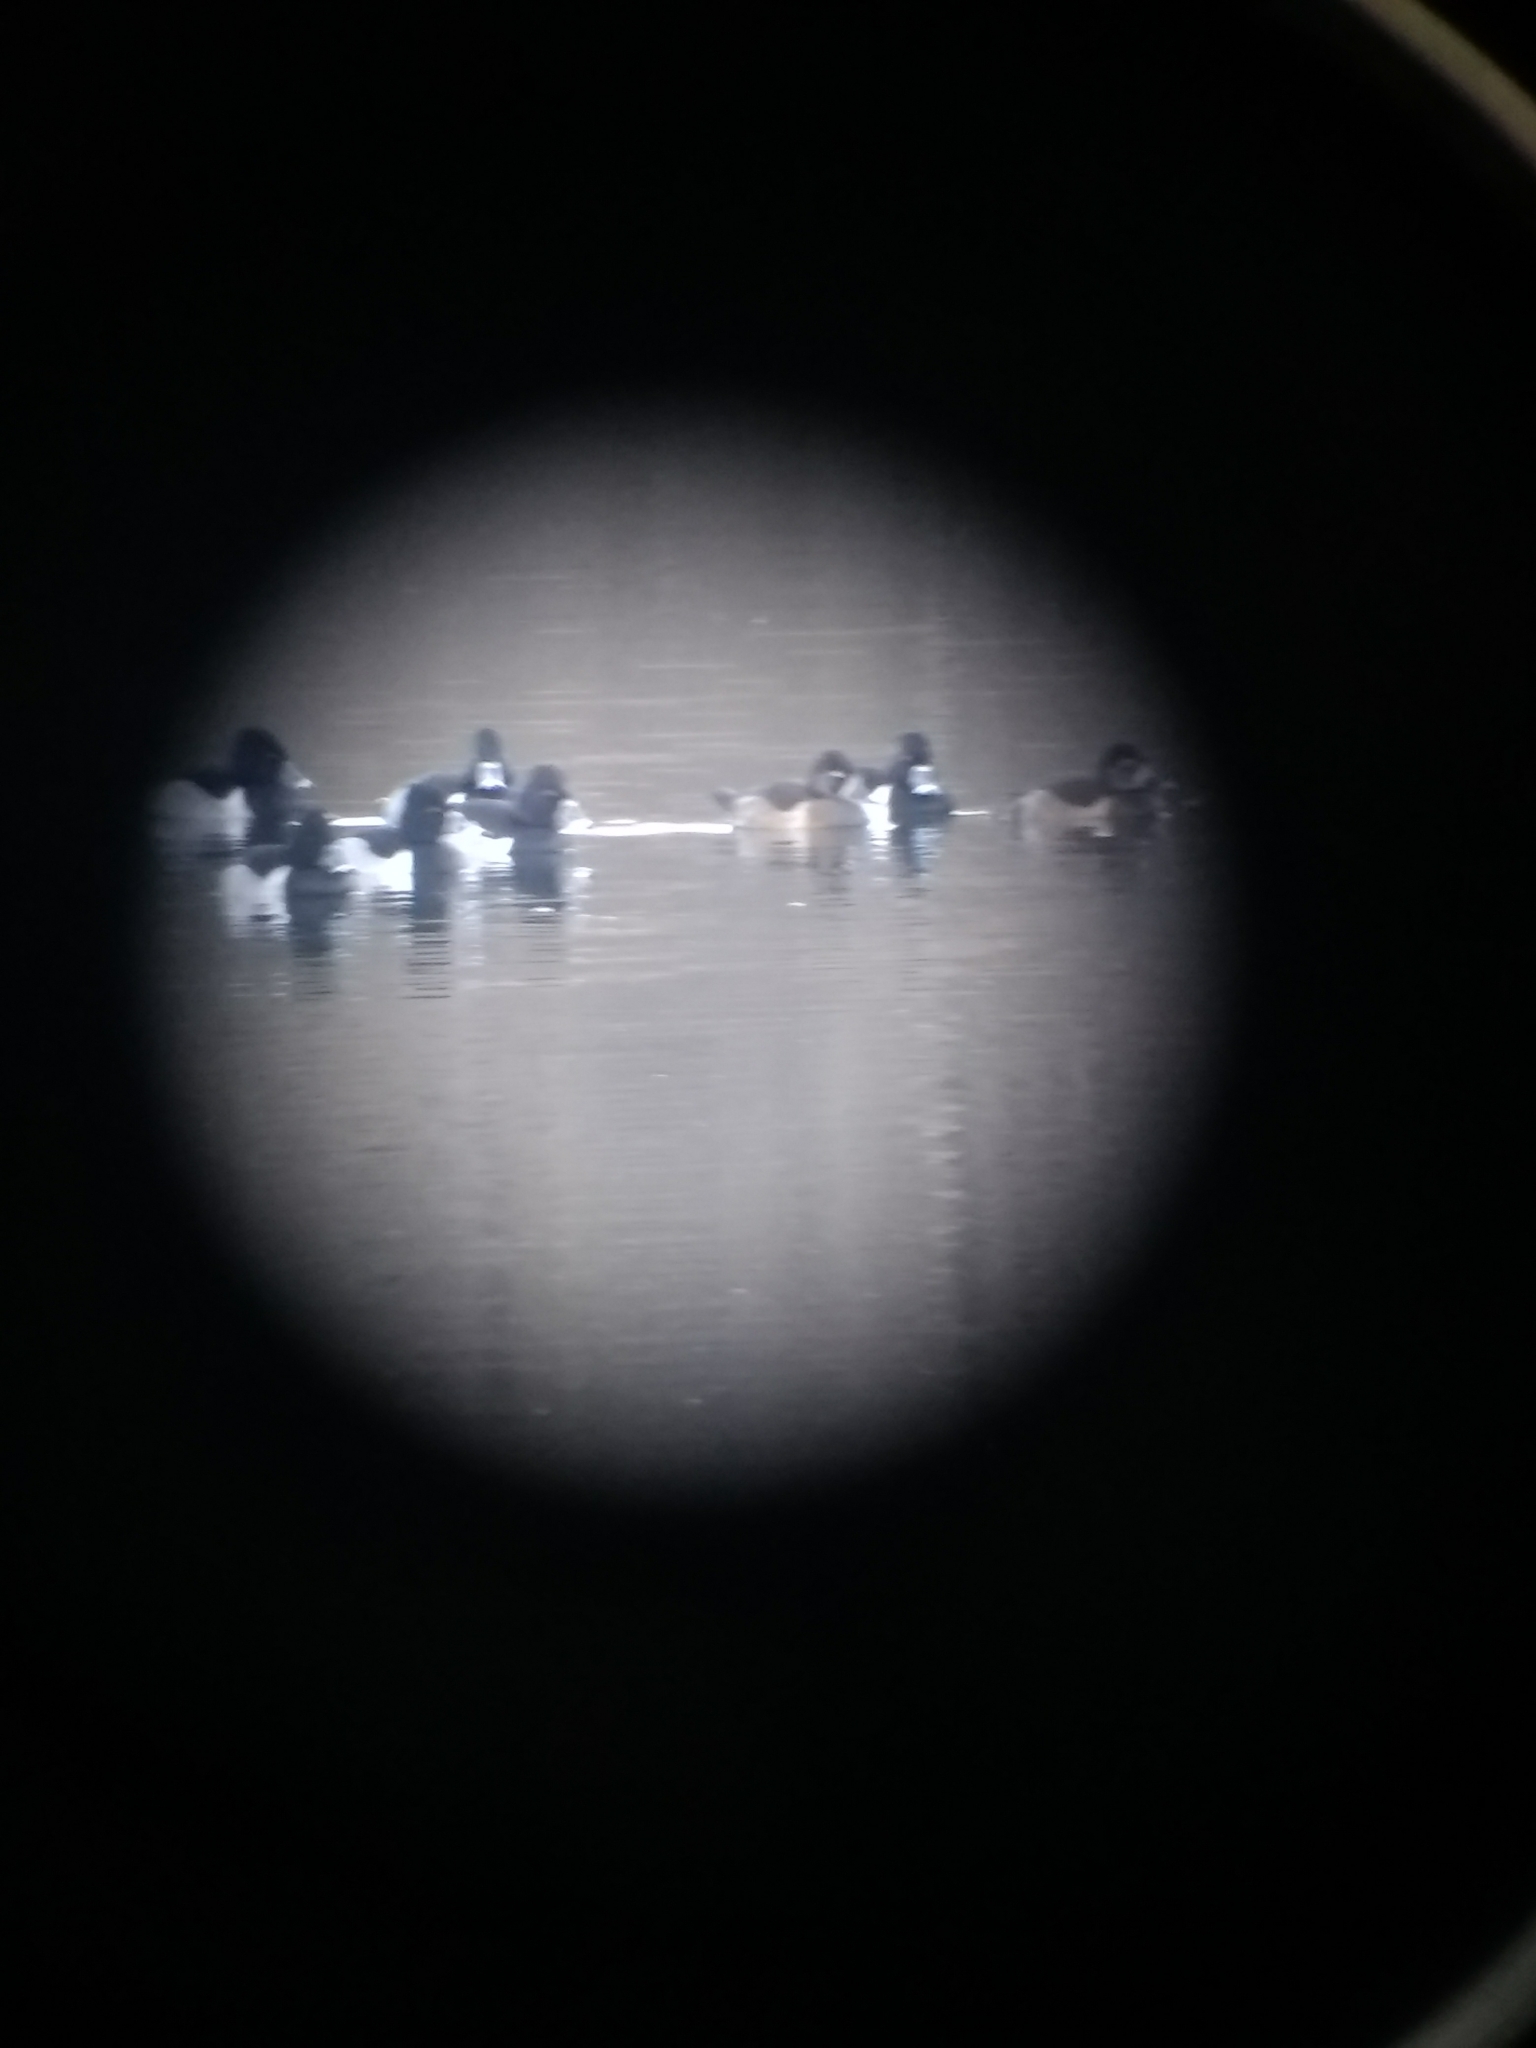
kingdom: Animalia
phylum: Chordata
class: Aves
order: Anseriformes
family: Anatidae
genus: Aythya
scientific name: Aythya collaris
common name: Ring-necked duck
